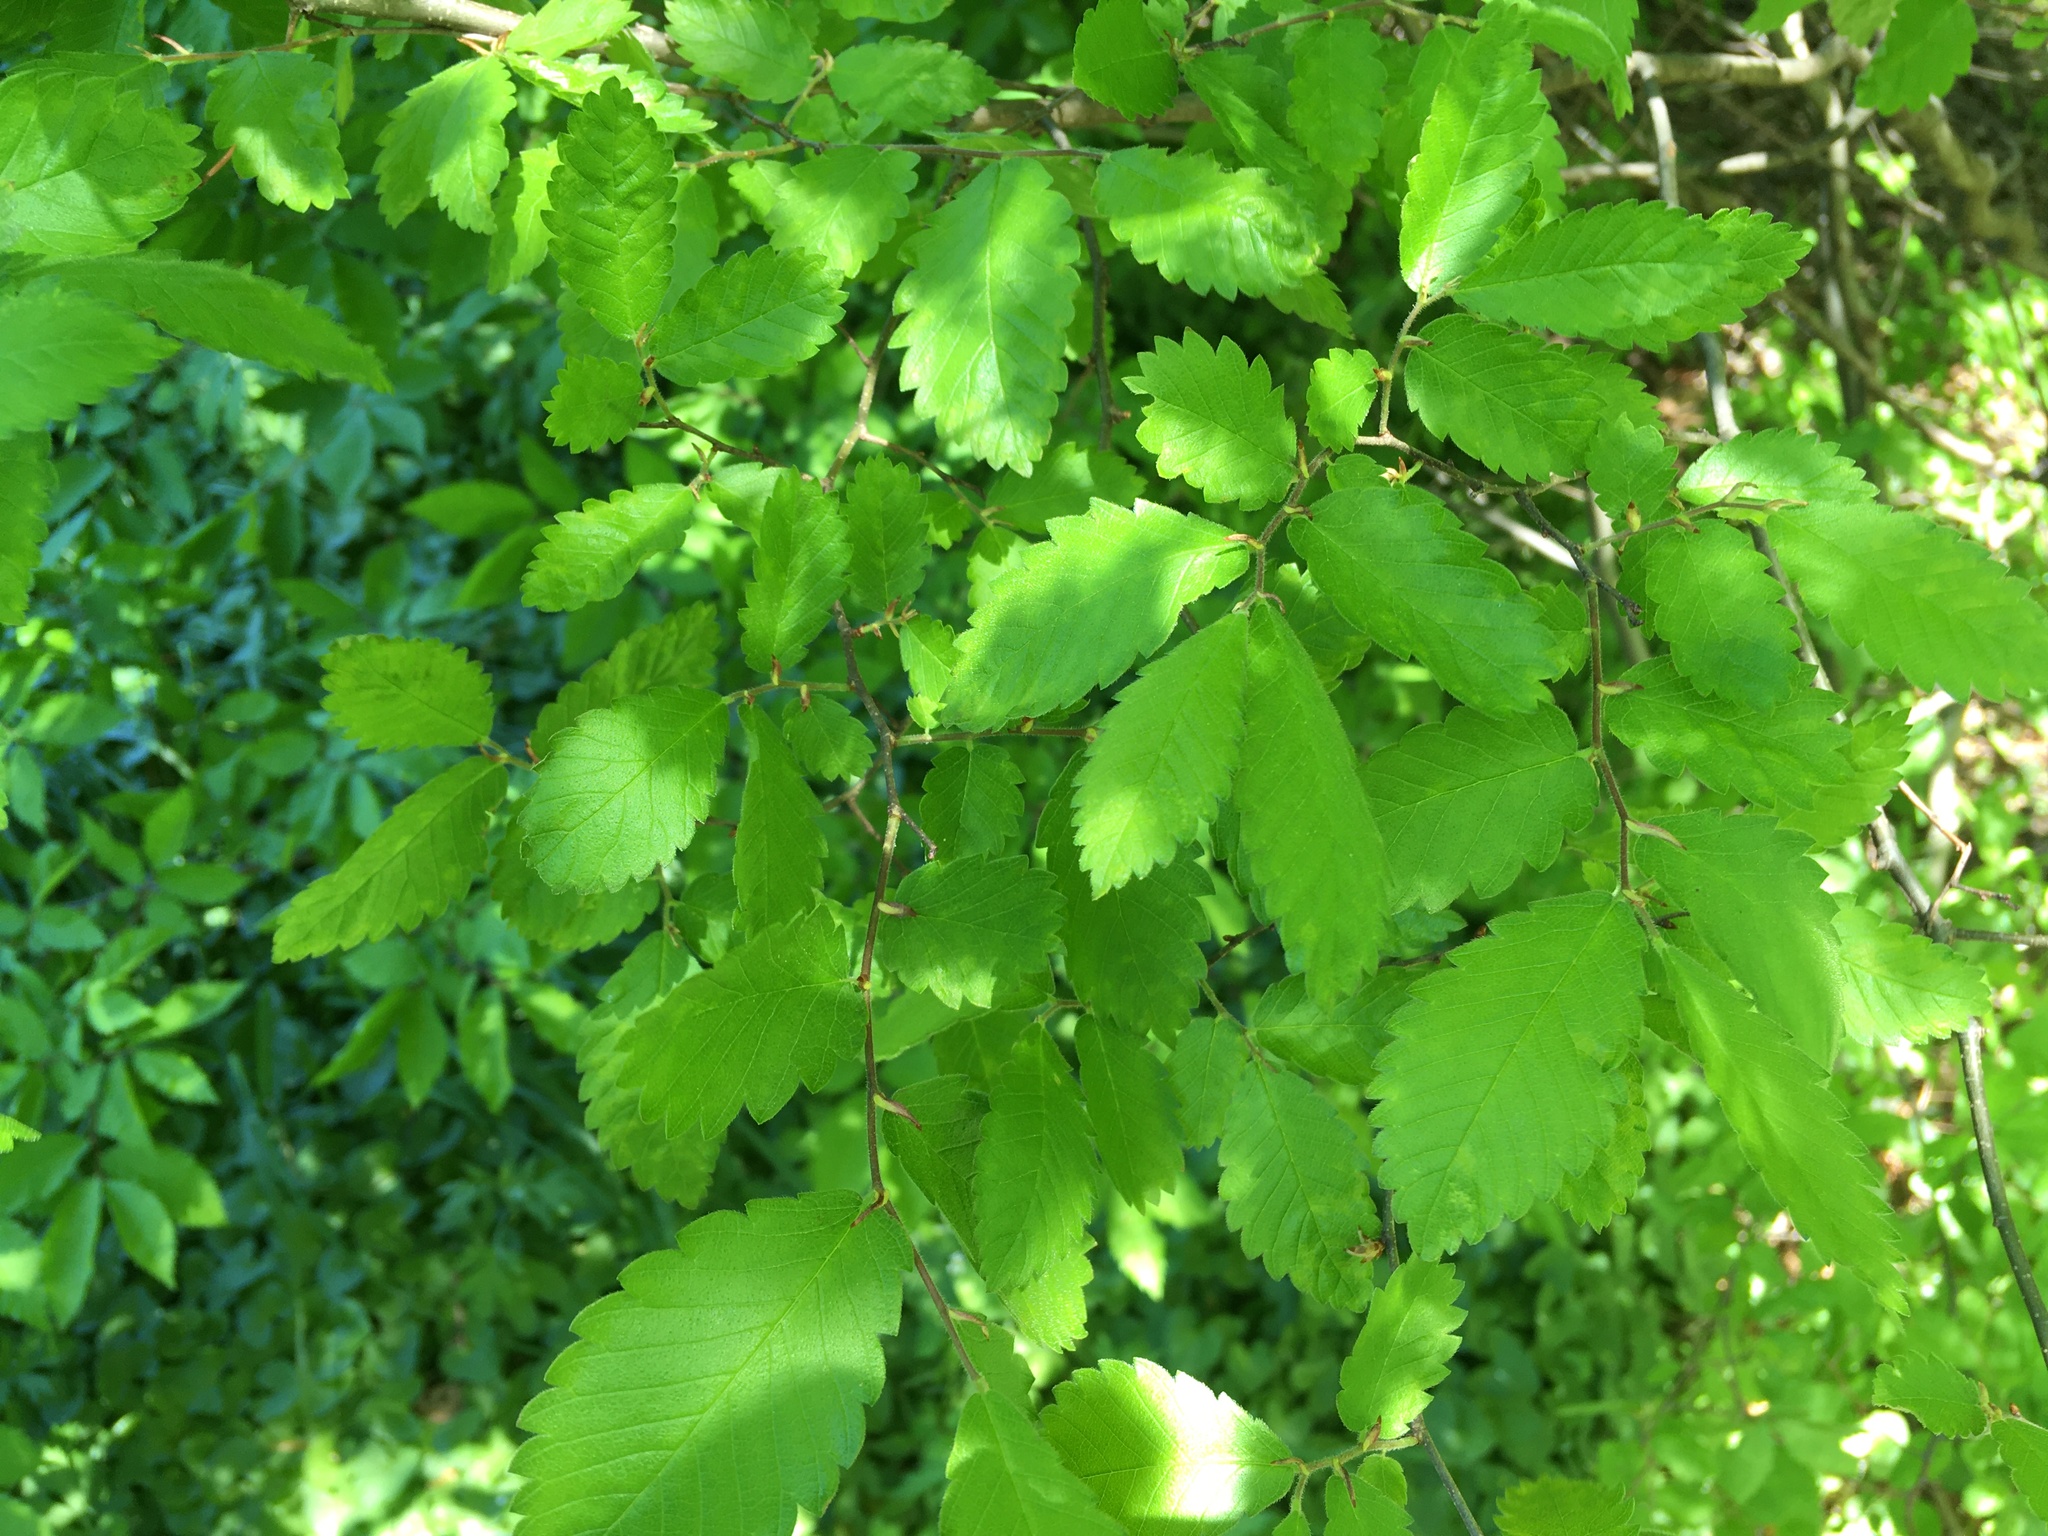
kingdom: Plantae
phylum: Tracheophyta
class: Magnoliopsida
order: Rosales
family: Ulmaceae
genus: Zelkova
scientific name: Zelkova serrata
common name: Japanese zelkova
